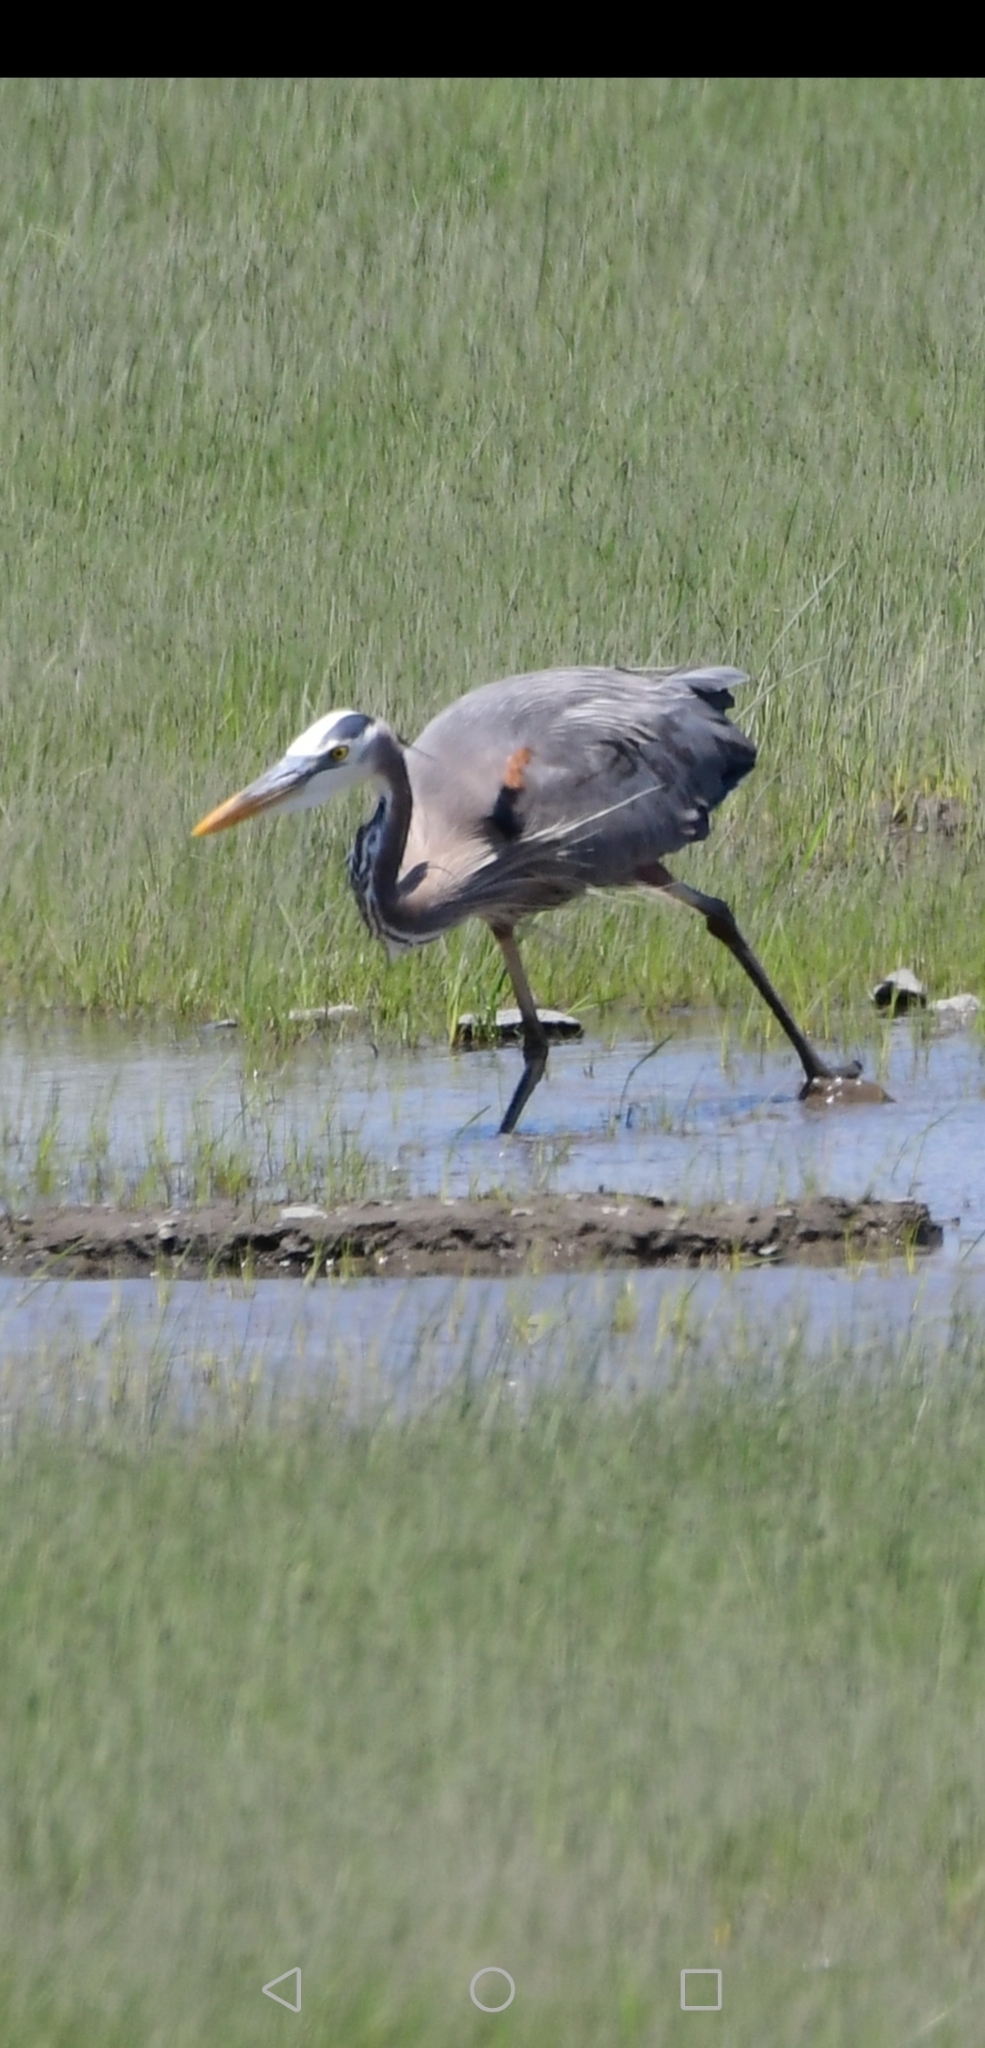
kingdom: Animalia
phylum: Chordata
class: Aves
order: Pelecaniformes
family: Ardeidae
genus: Ardea
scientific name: Ardea herodias
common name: Great blue heron
